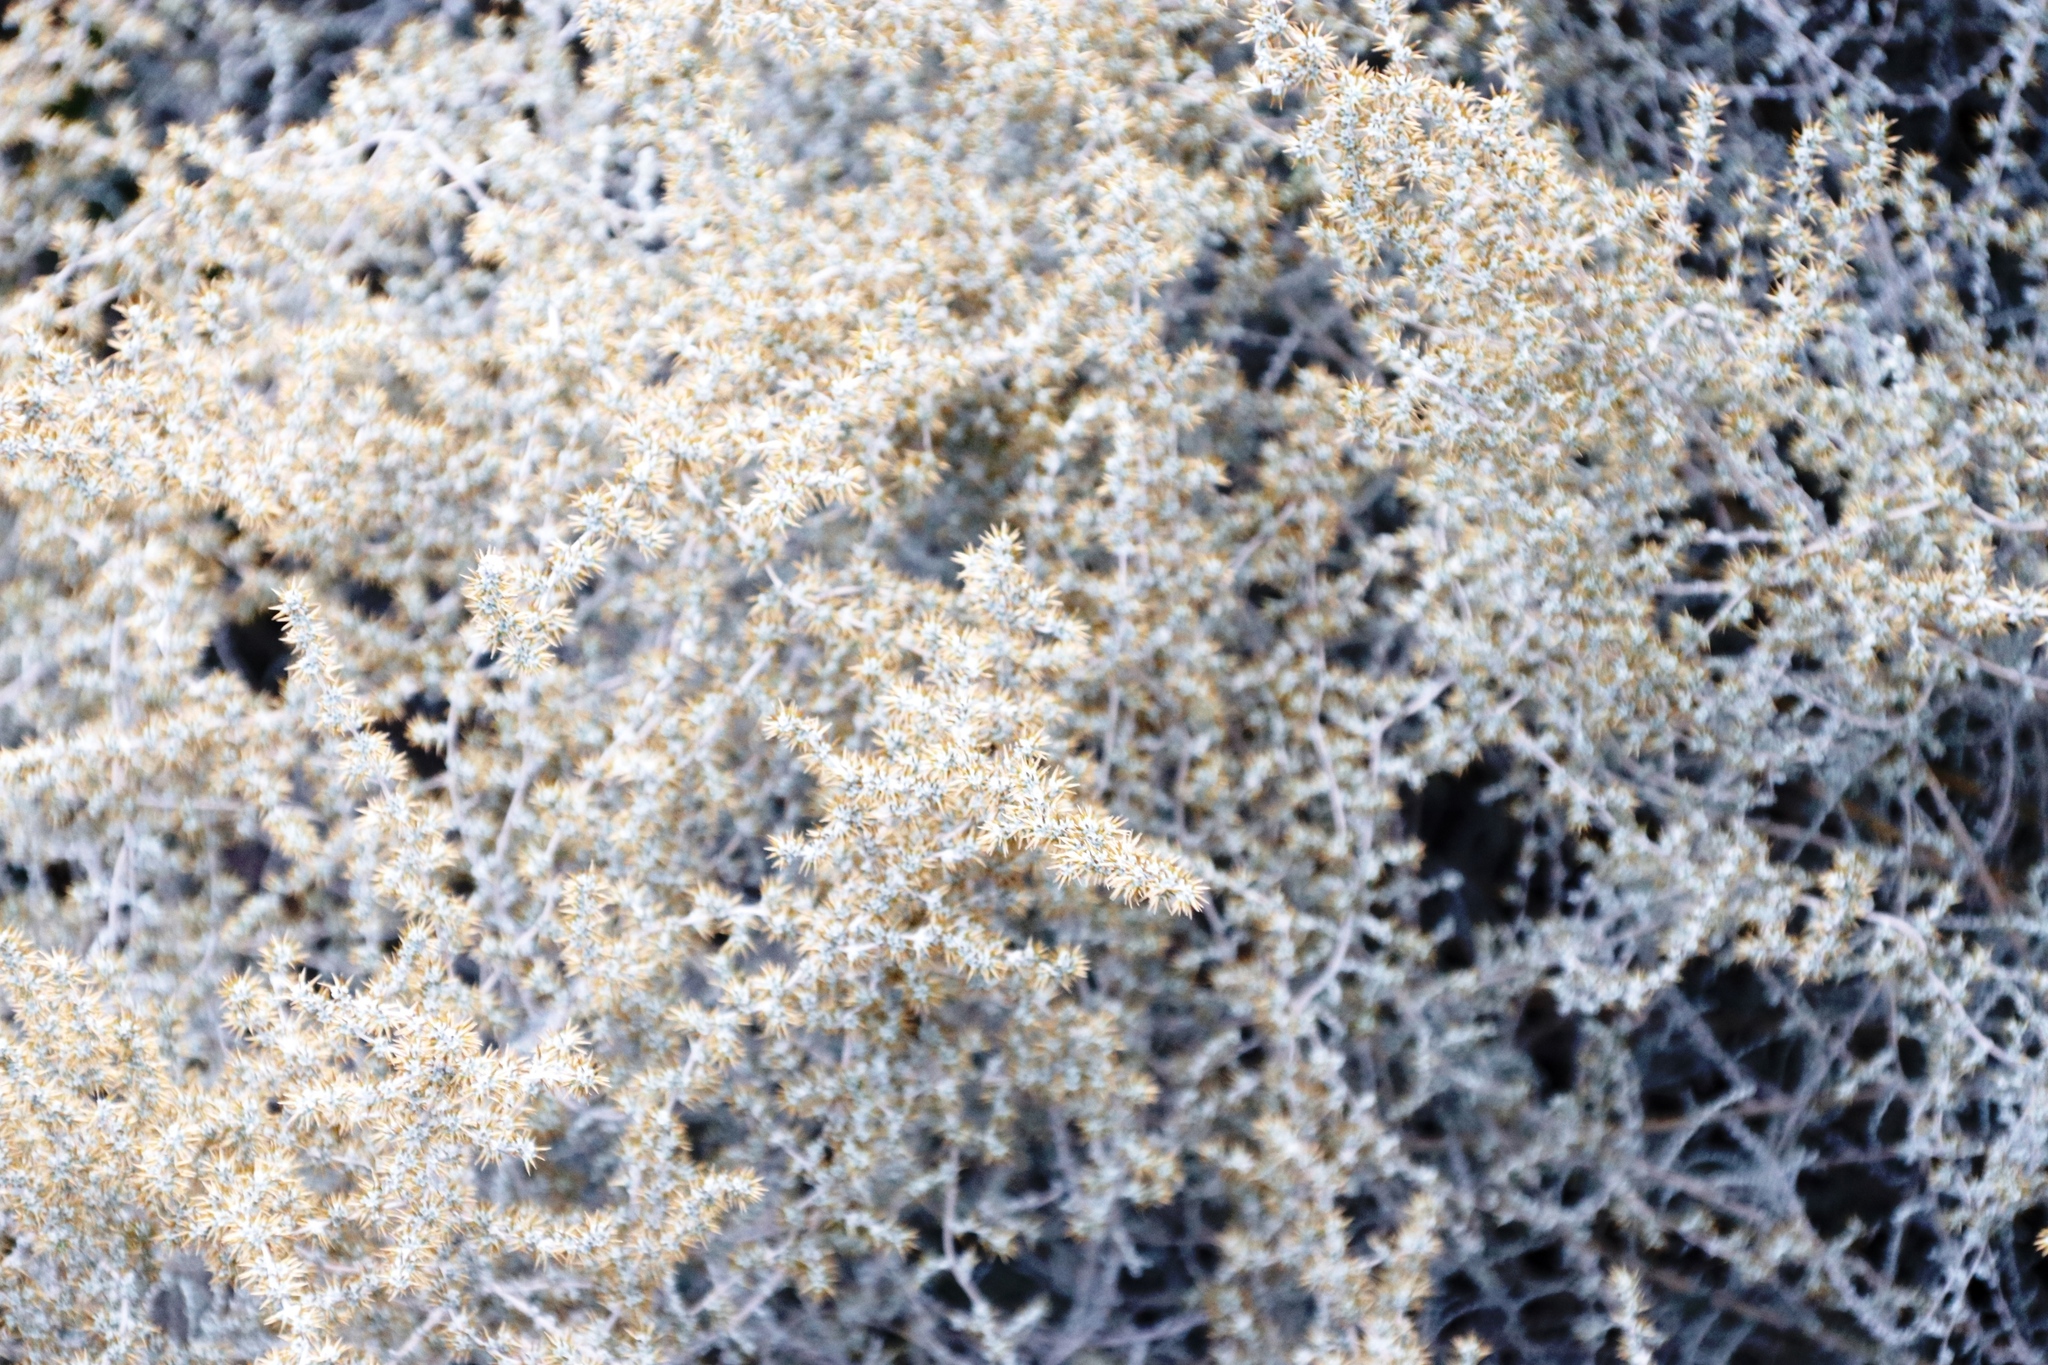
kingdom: Plantae
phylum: Tracheophyta
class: Magnoliopsida
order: Asterales
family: Asteraceae
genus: Seriphium
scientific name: Seriphium plumosum
